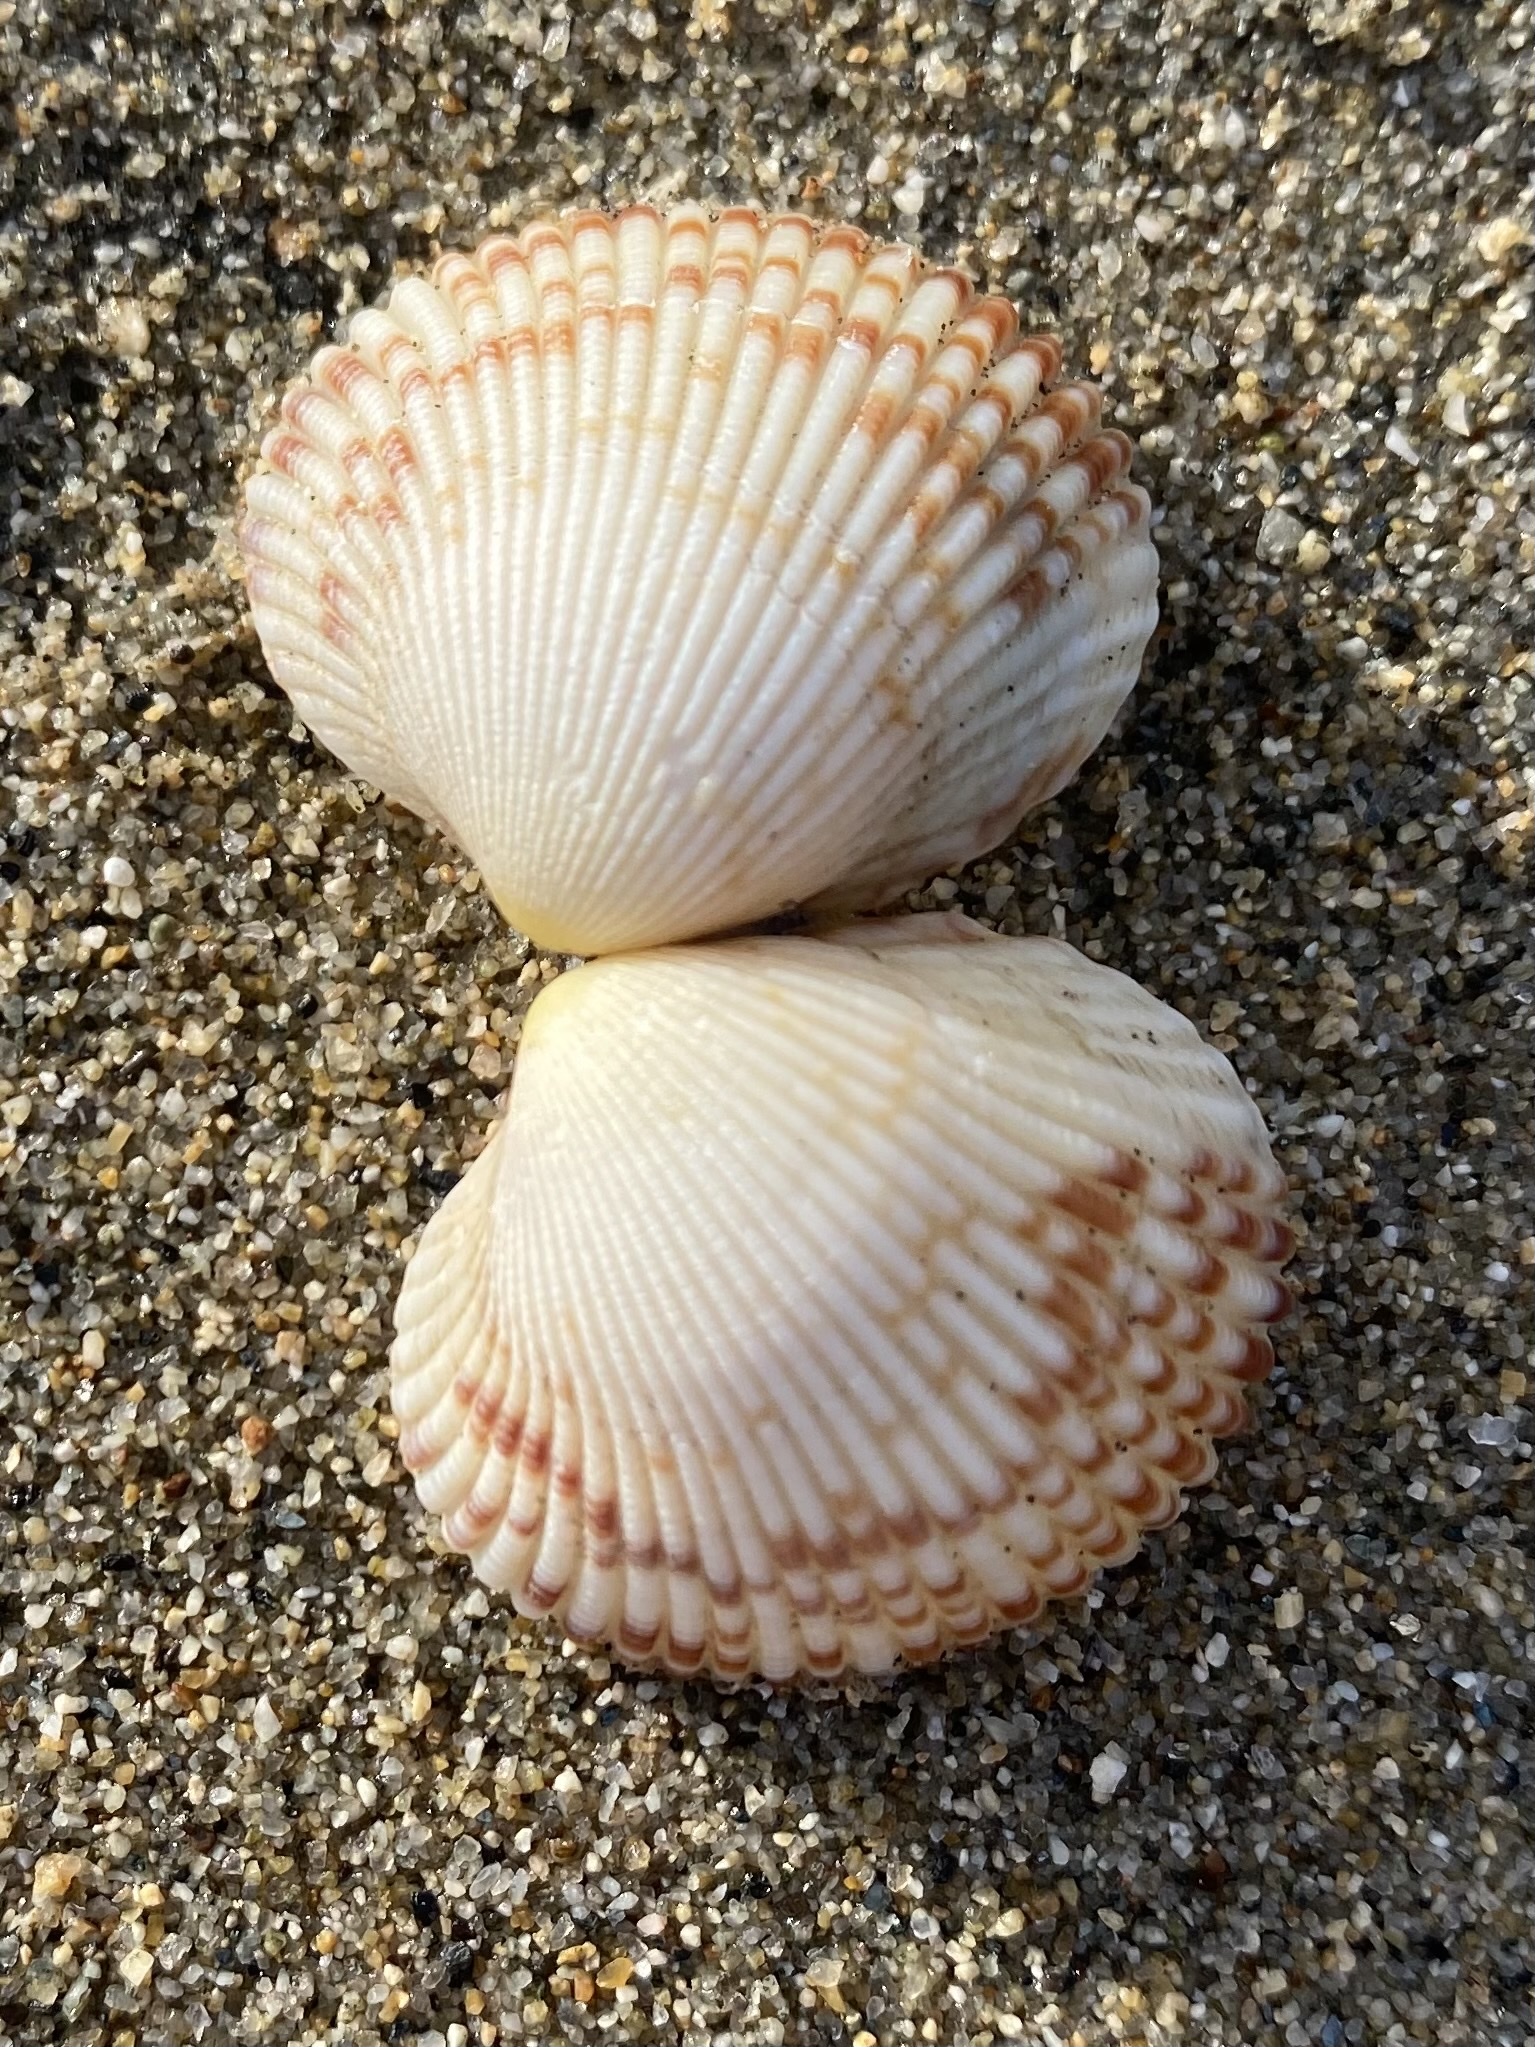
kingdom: Animalia
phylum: Mollusca
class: Bivalvia
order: Cardiida
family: Cardiidae
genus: Clinocardium
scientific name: Clinocardium nuttallii
